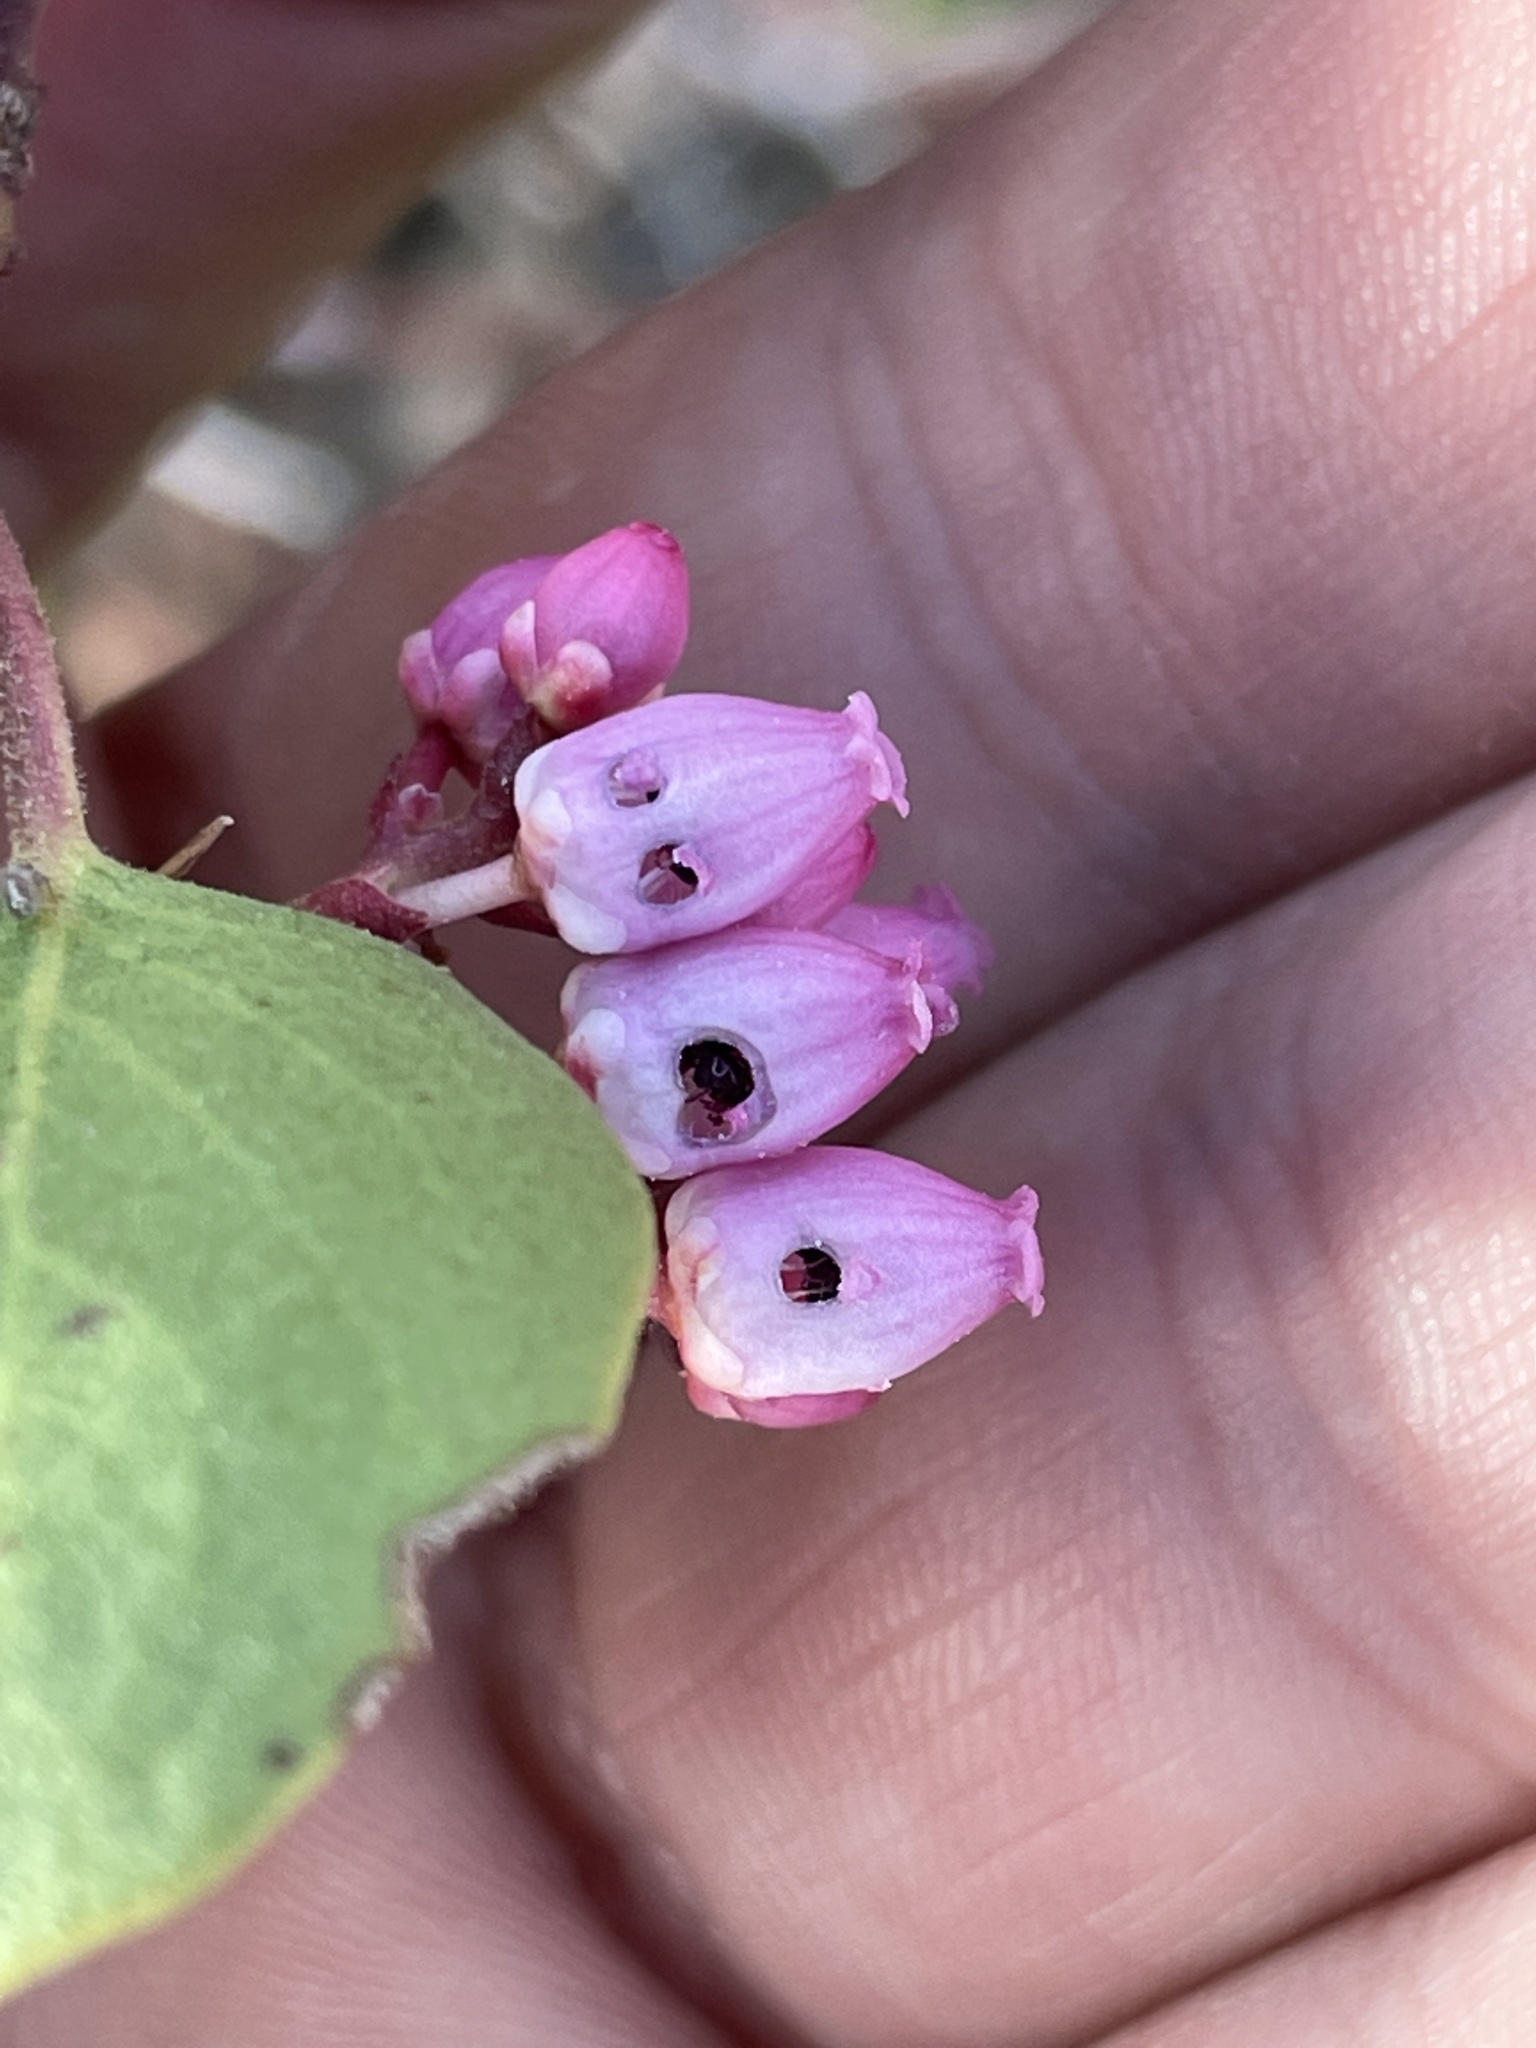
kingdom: Plantae
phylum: Tracheophyta
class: Magnoliopsida
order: Ericales
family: Ericaceae
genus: Arctostaphylos
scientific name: Arctostaphylos patula
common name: Green-leaf manzanita
